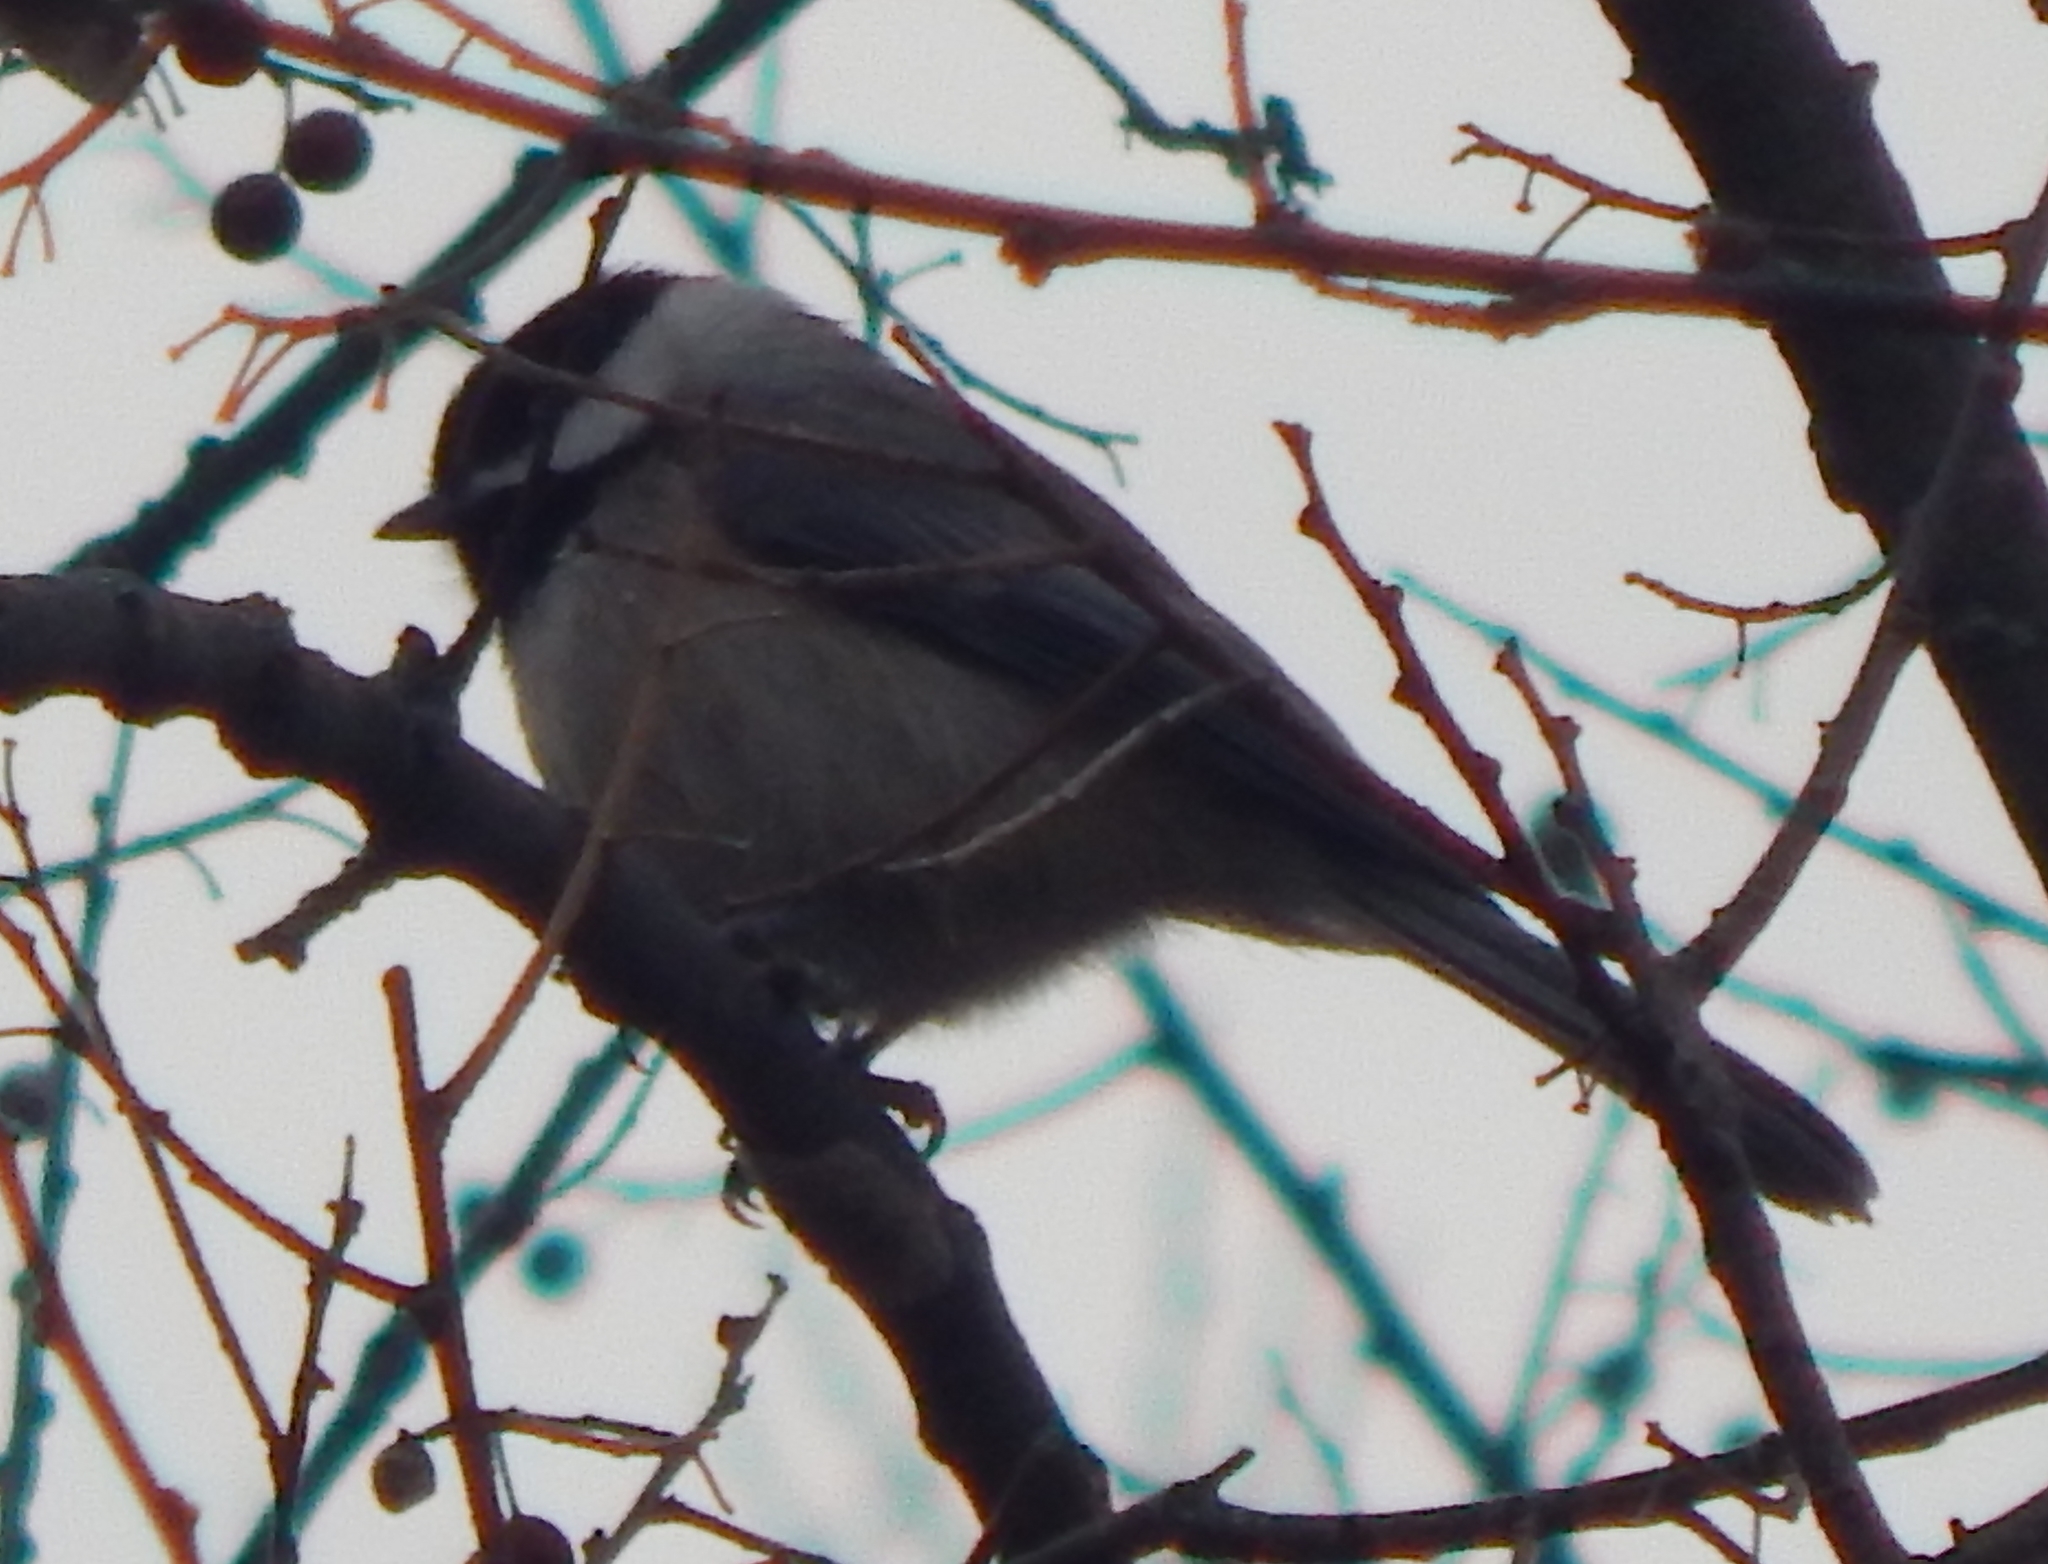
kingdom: Animalia
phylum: Chordata
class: Aves
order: Passeriformes
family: Paridae
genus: Poecile
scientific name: Poecile carolinensis
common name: Carolina chickadee
